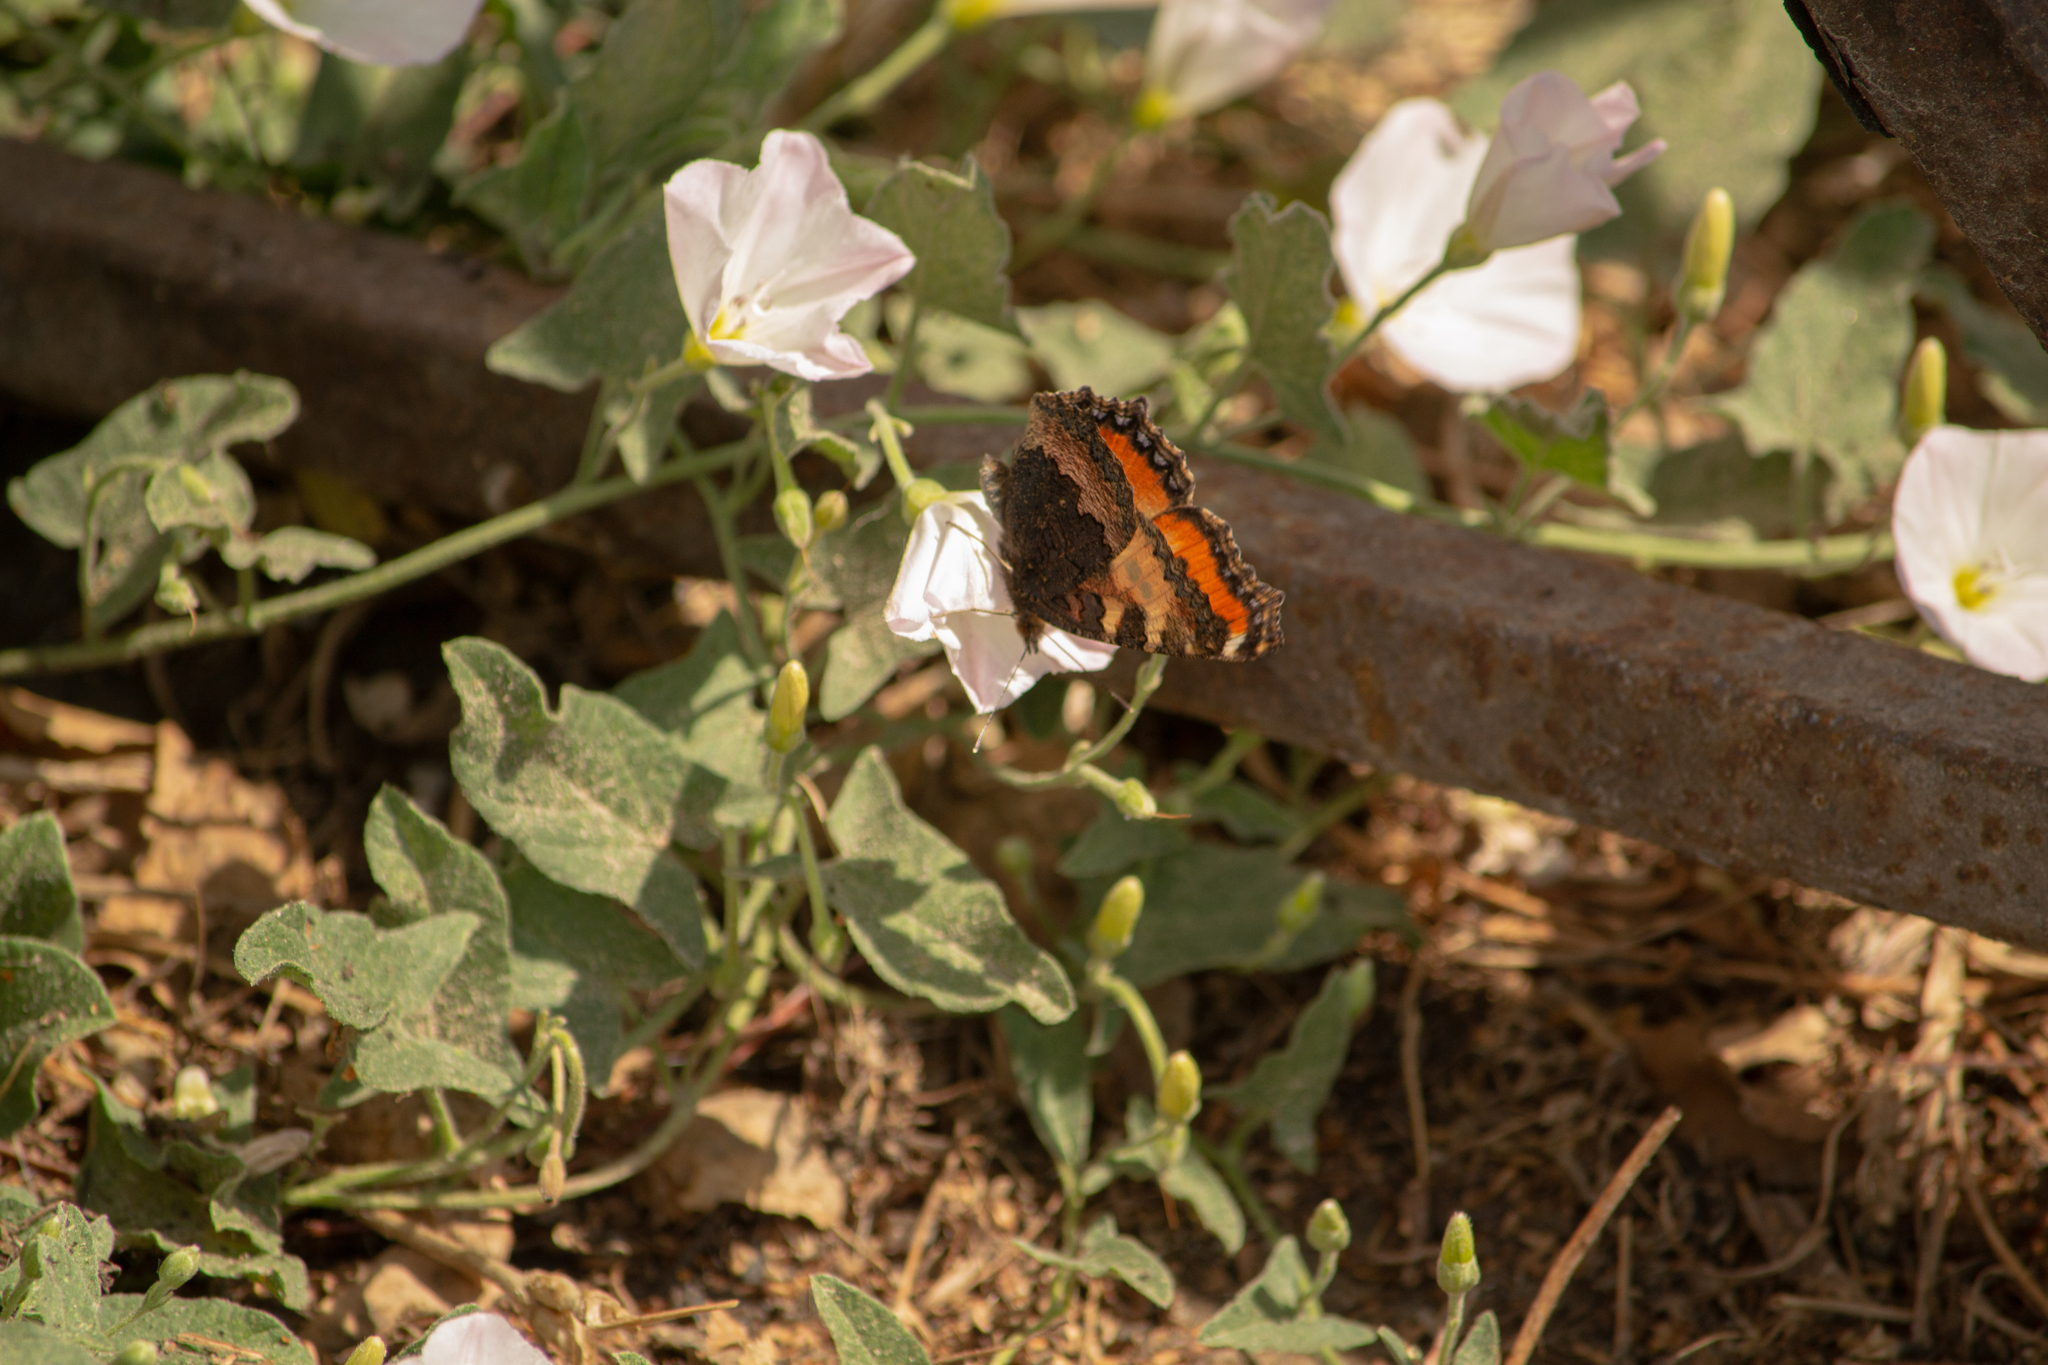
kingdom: Animalia
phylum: Arthropoda
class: Insecta
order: Lepidoptera
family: Nymphalidae
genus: Aglais
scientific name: Aglais urticae
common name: Small tortoiseshell
